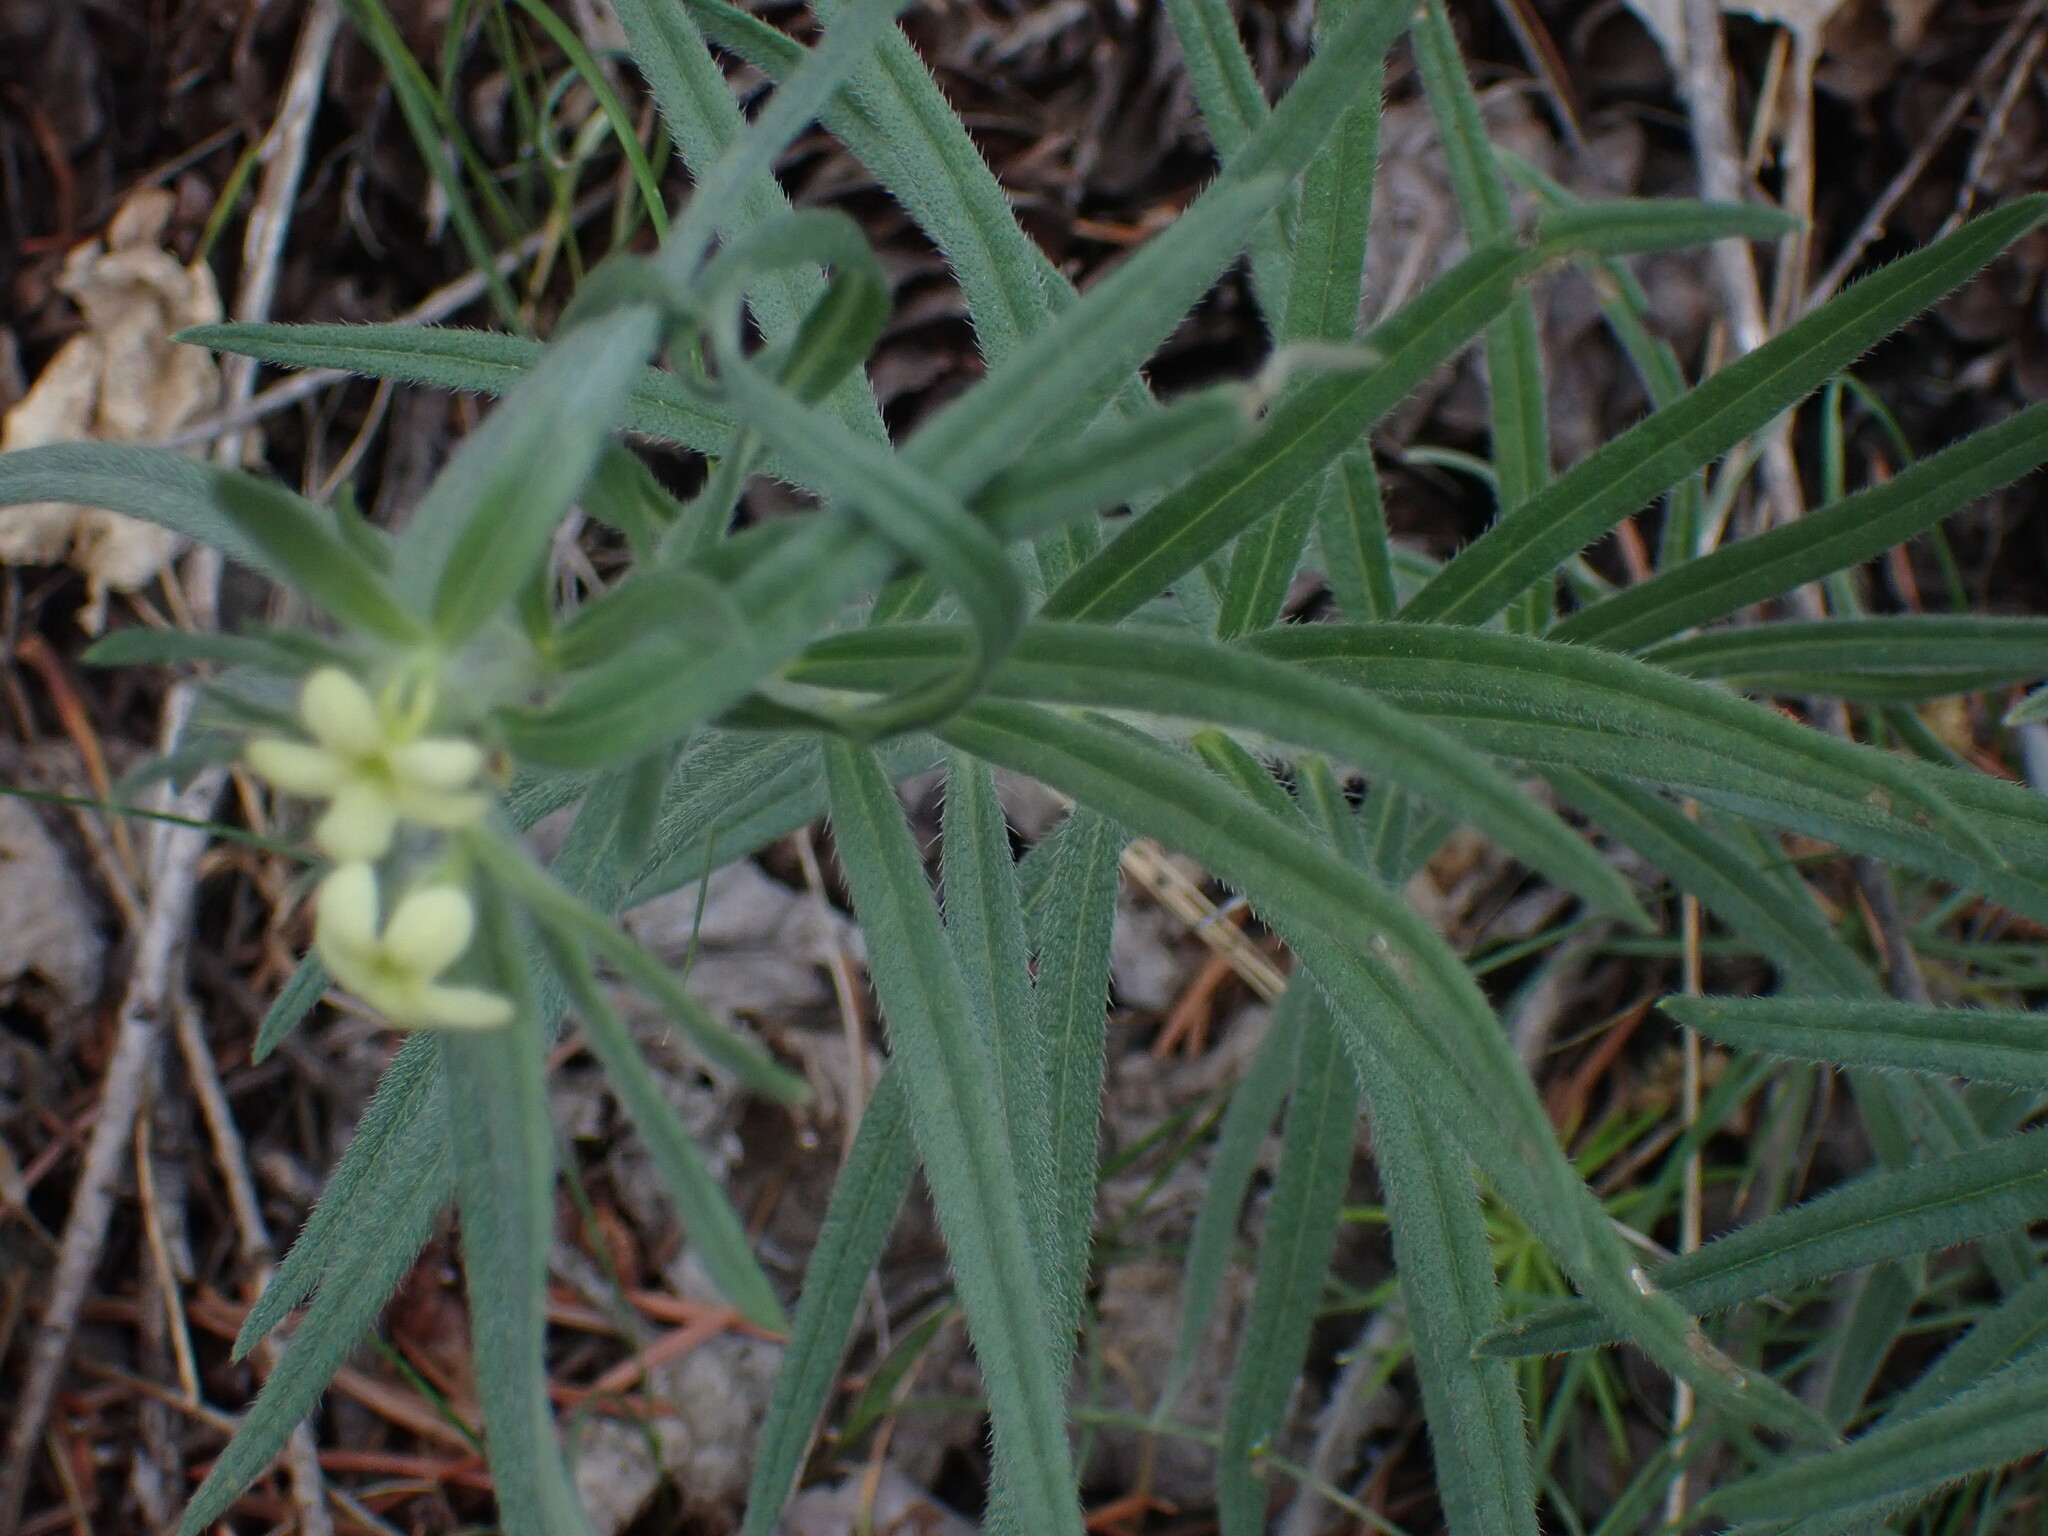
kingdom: Plantae
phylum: Tracheophyta
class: Magnoliopsida
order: Boraginales
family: Boraginaceae
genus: Lithospermum
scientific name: Lithospermum ruderale
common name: Western gromwell
